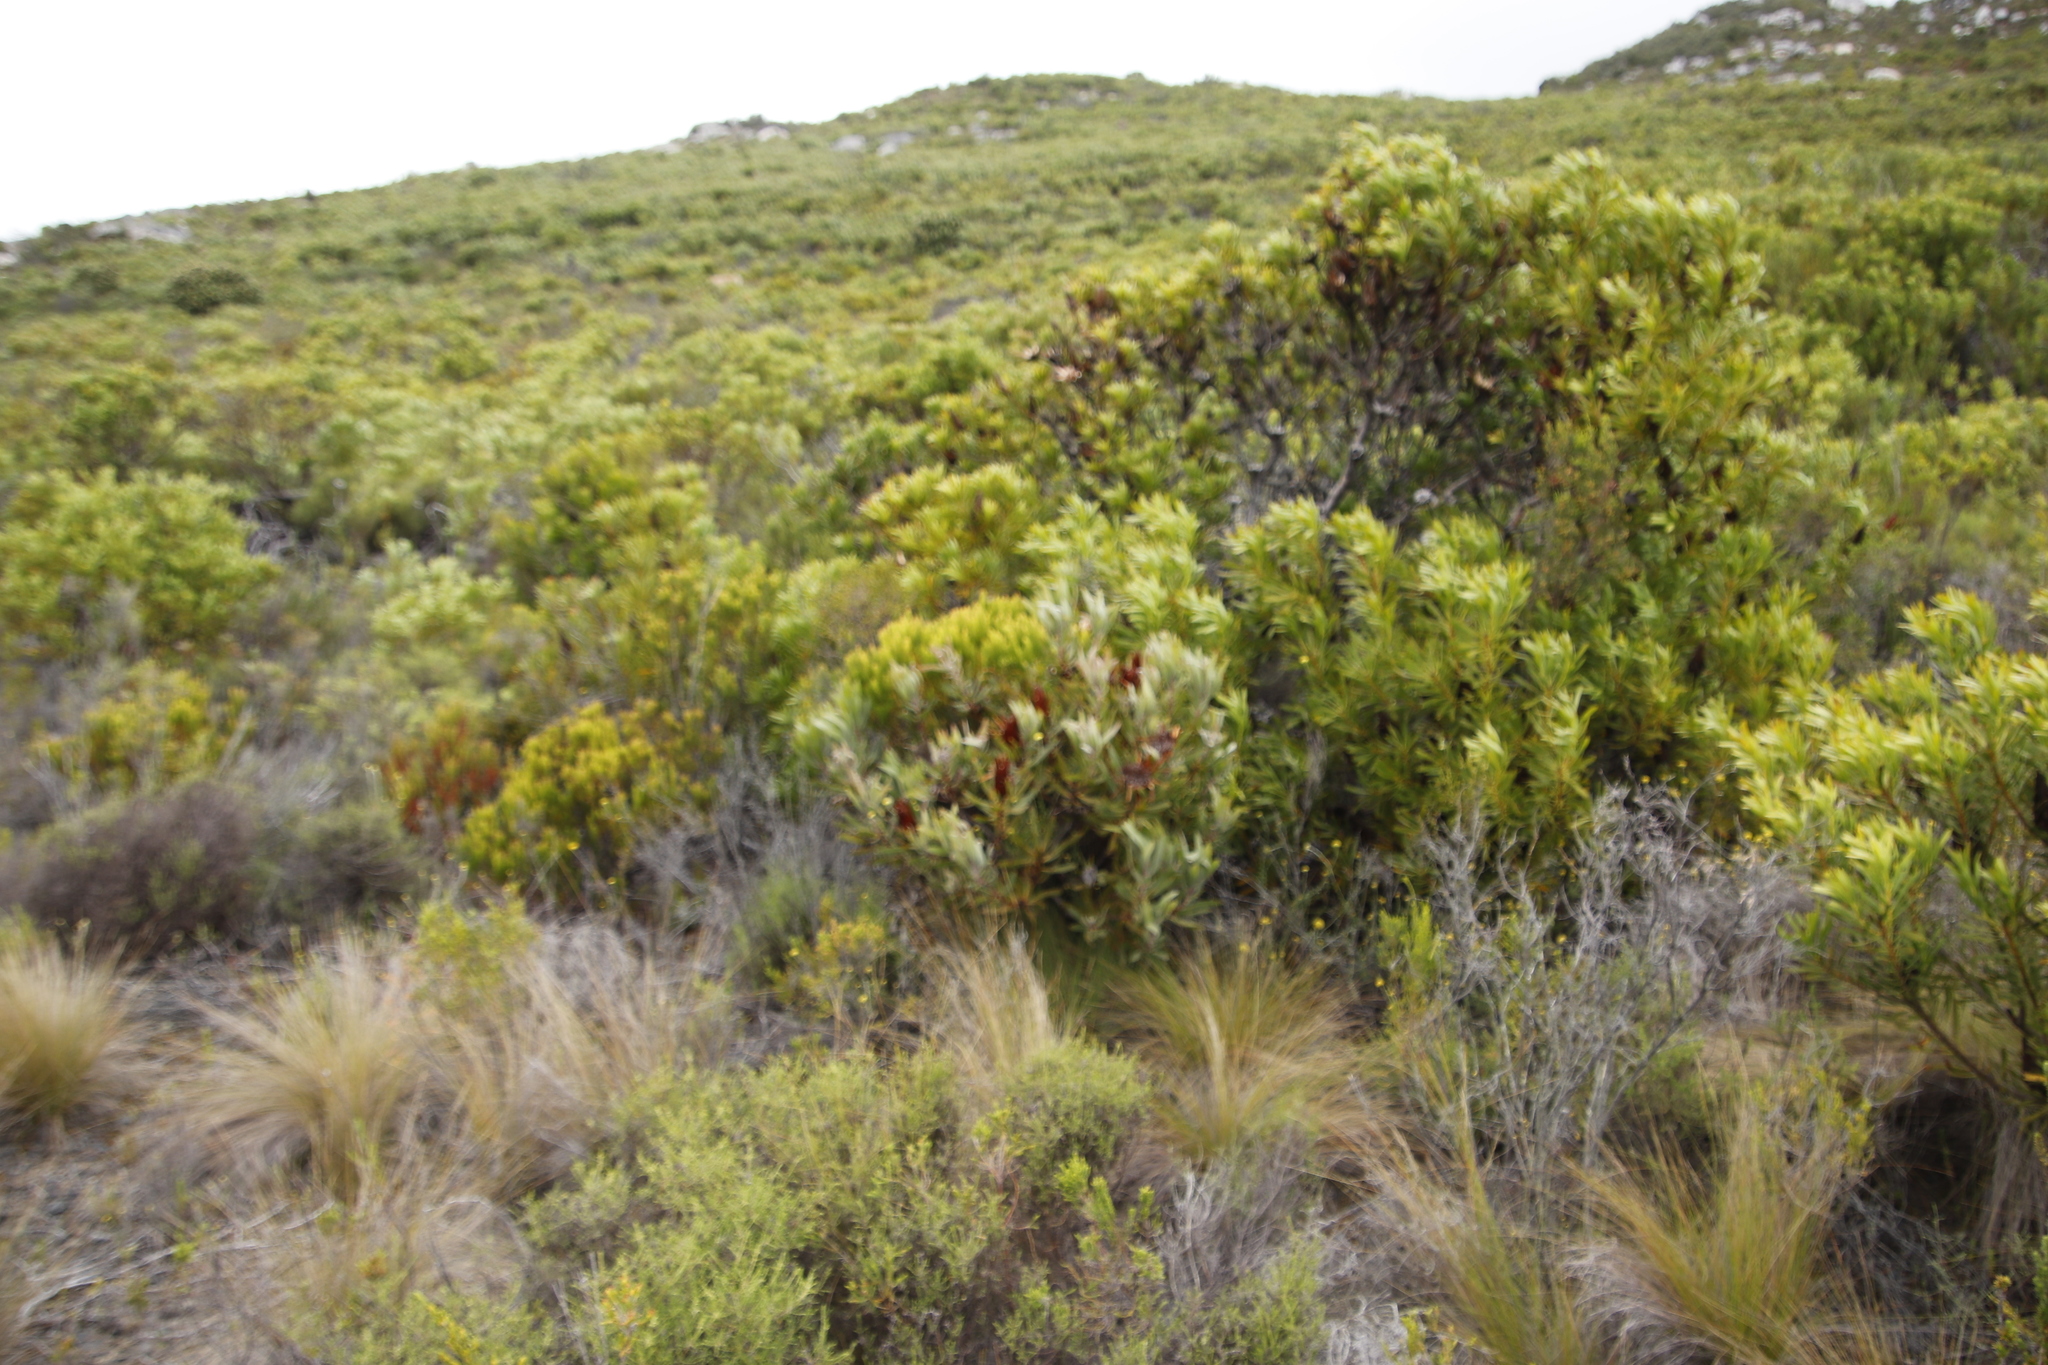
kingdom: Plantae
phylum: Tracheophyta
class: Magnoliopsida
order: Proteales
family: Proteaceae
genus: Protea
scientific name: Protea burchellii
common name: Burchell's sugarbush
